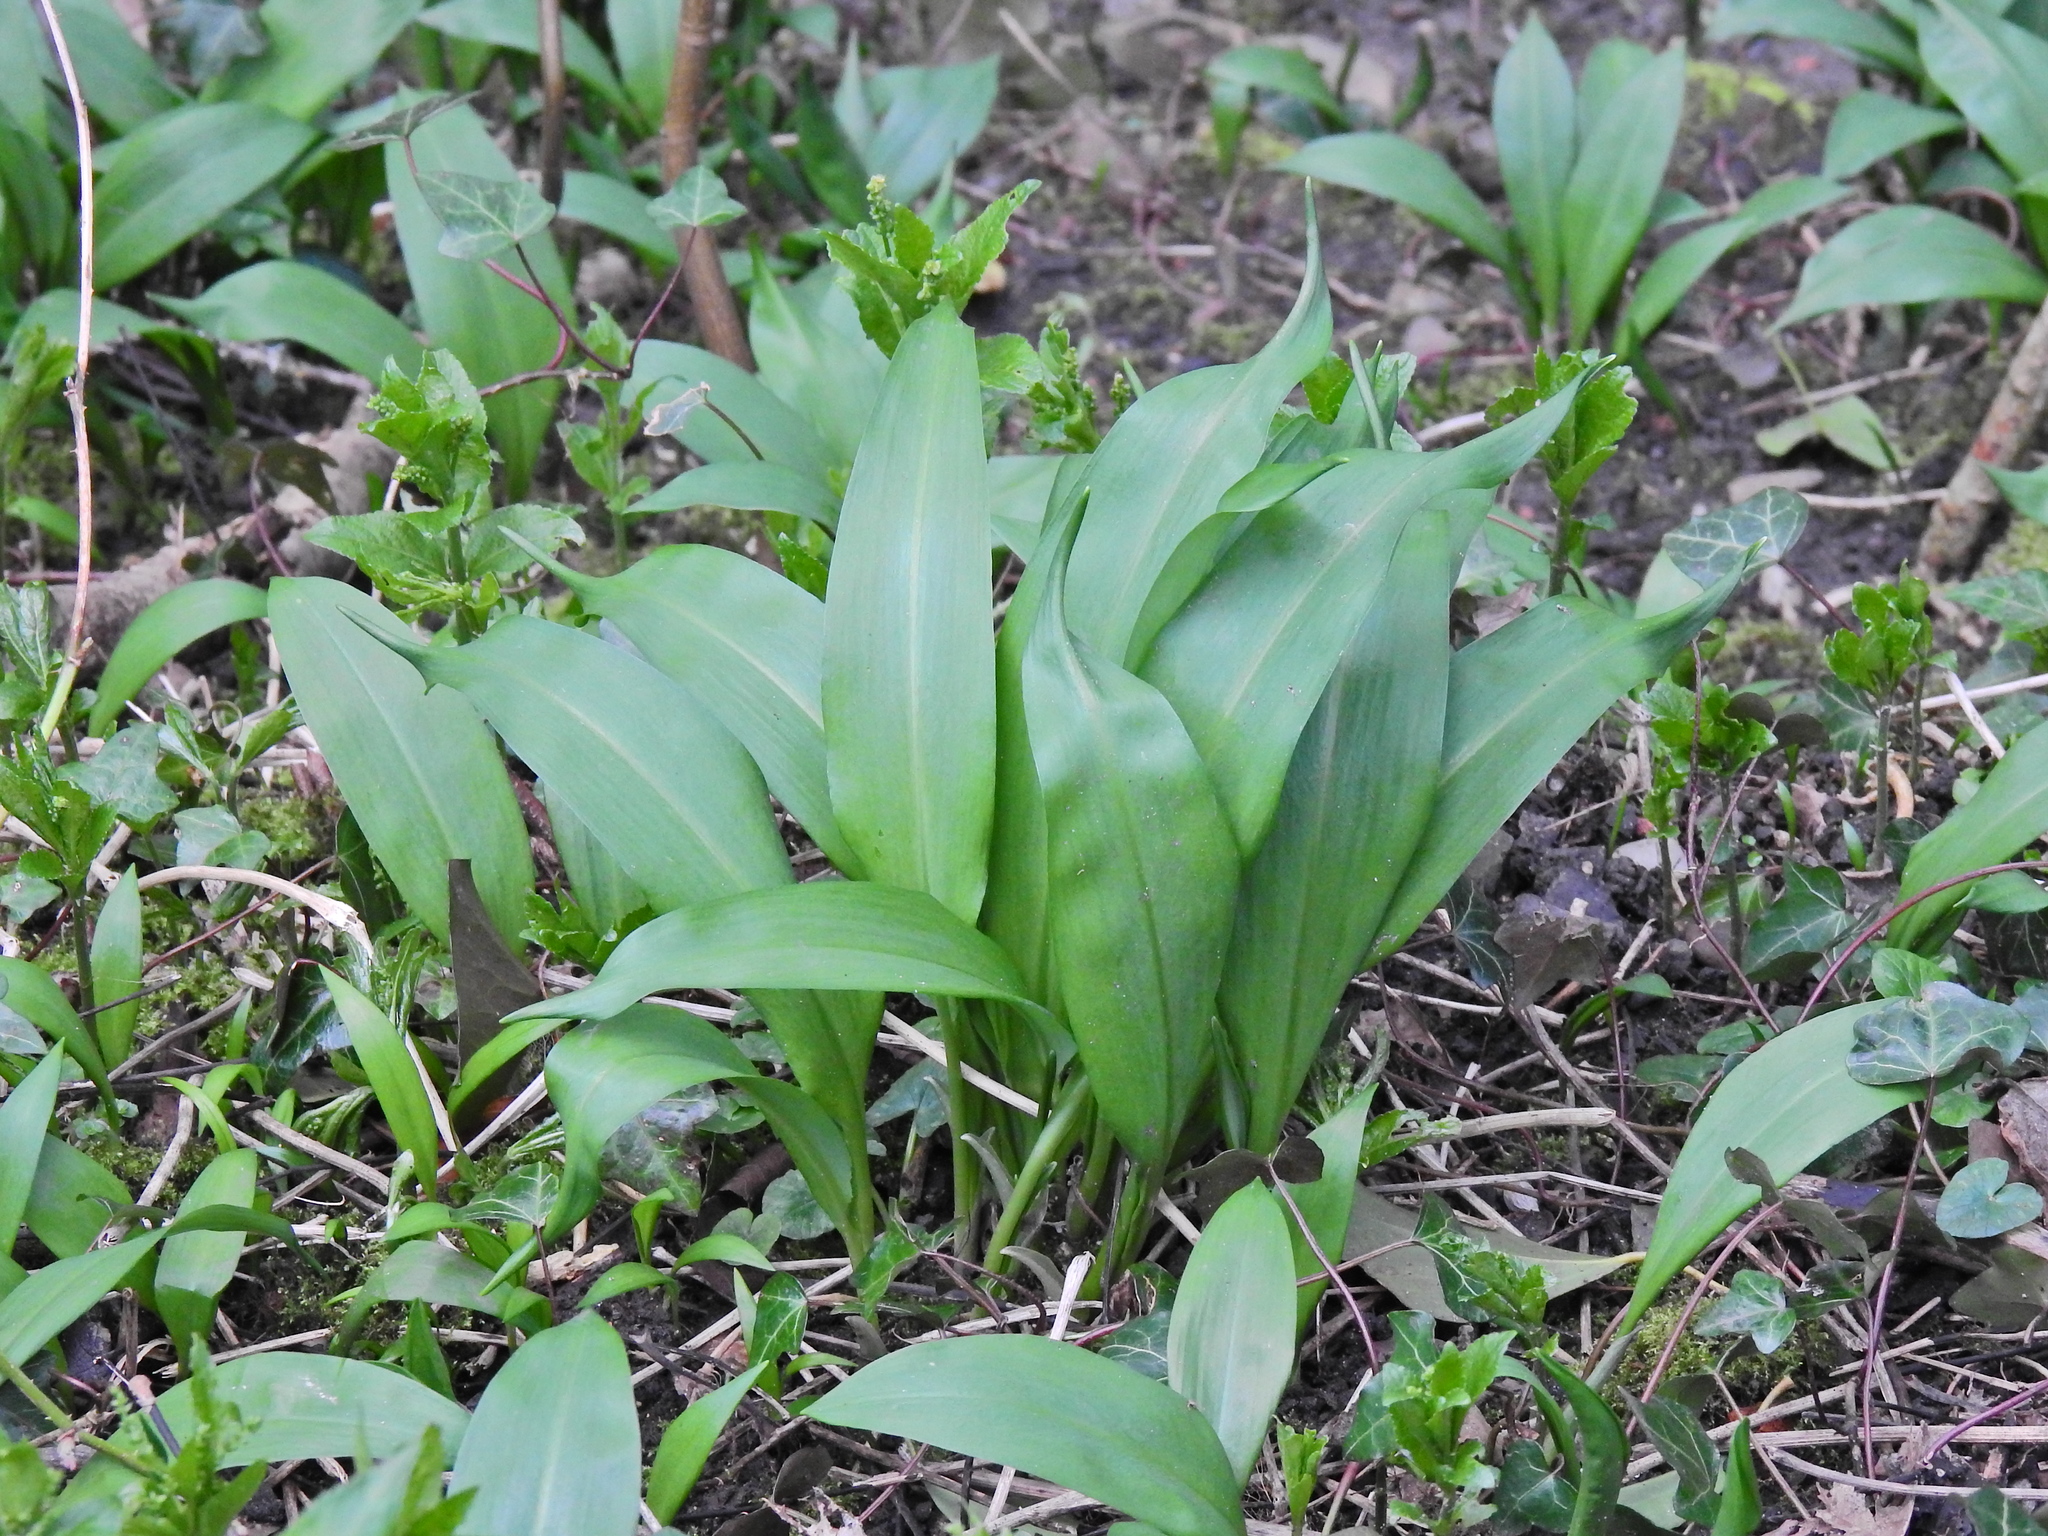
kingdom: Plantae
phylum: Tracheophyta
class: Liliopsida
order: Asparagales
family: Amaryllidaceae
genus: Allium
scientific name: Allium ursinum
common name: Ramsons
